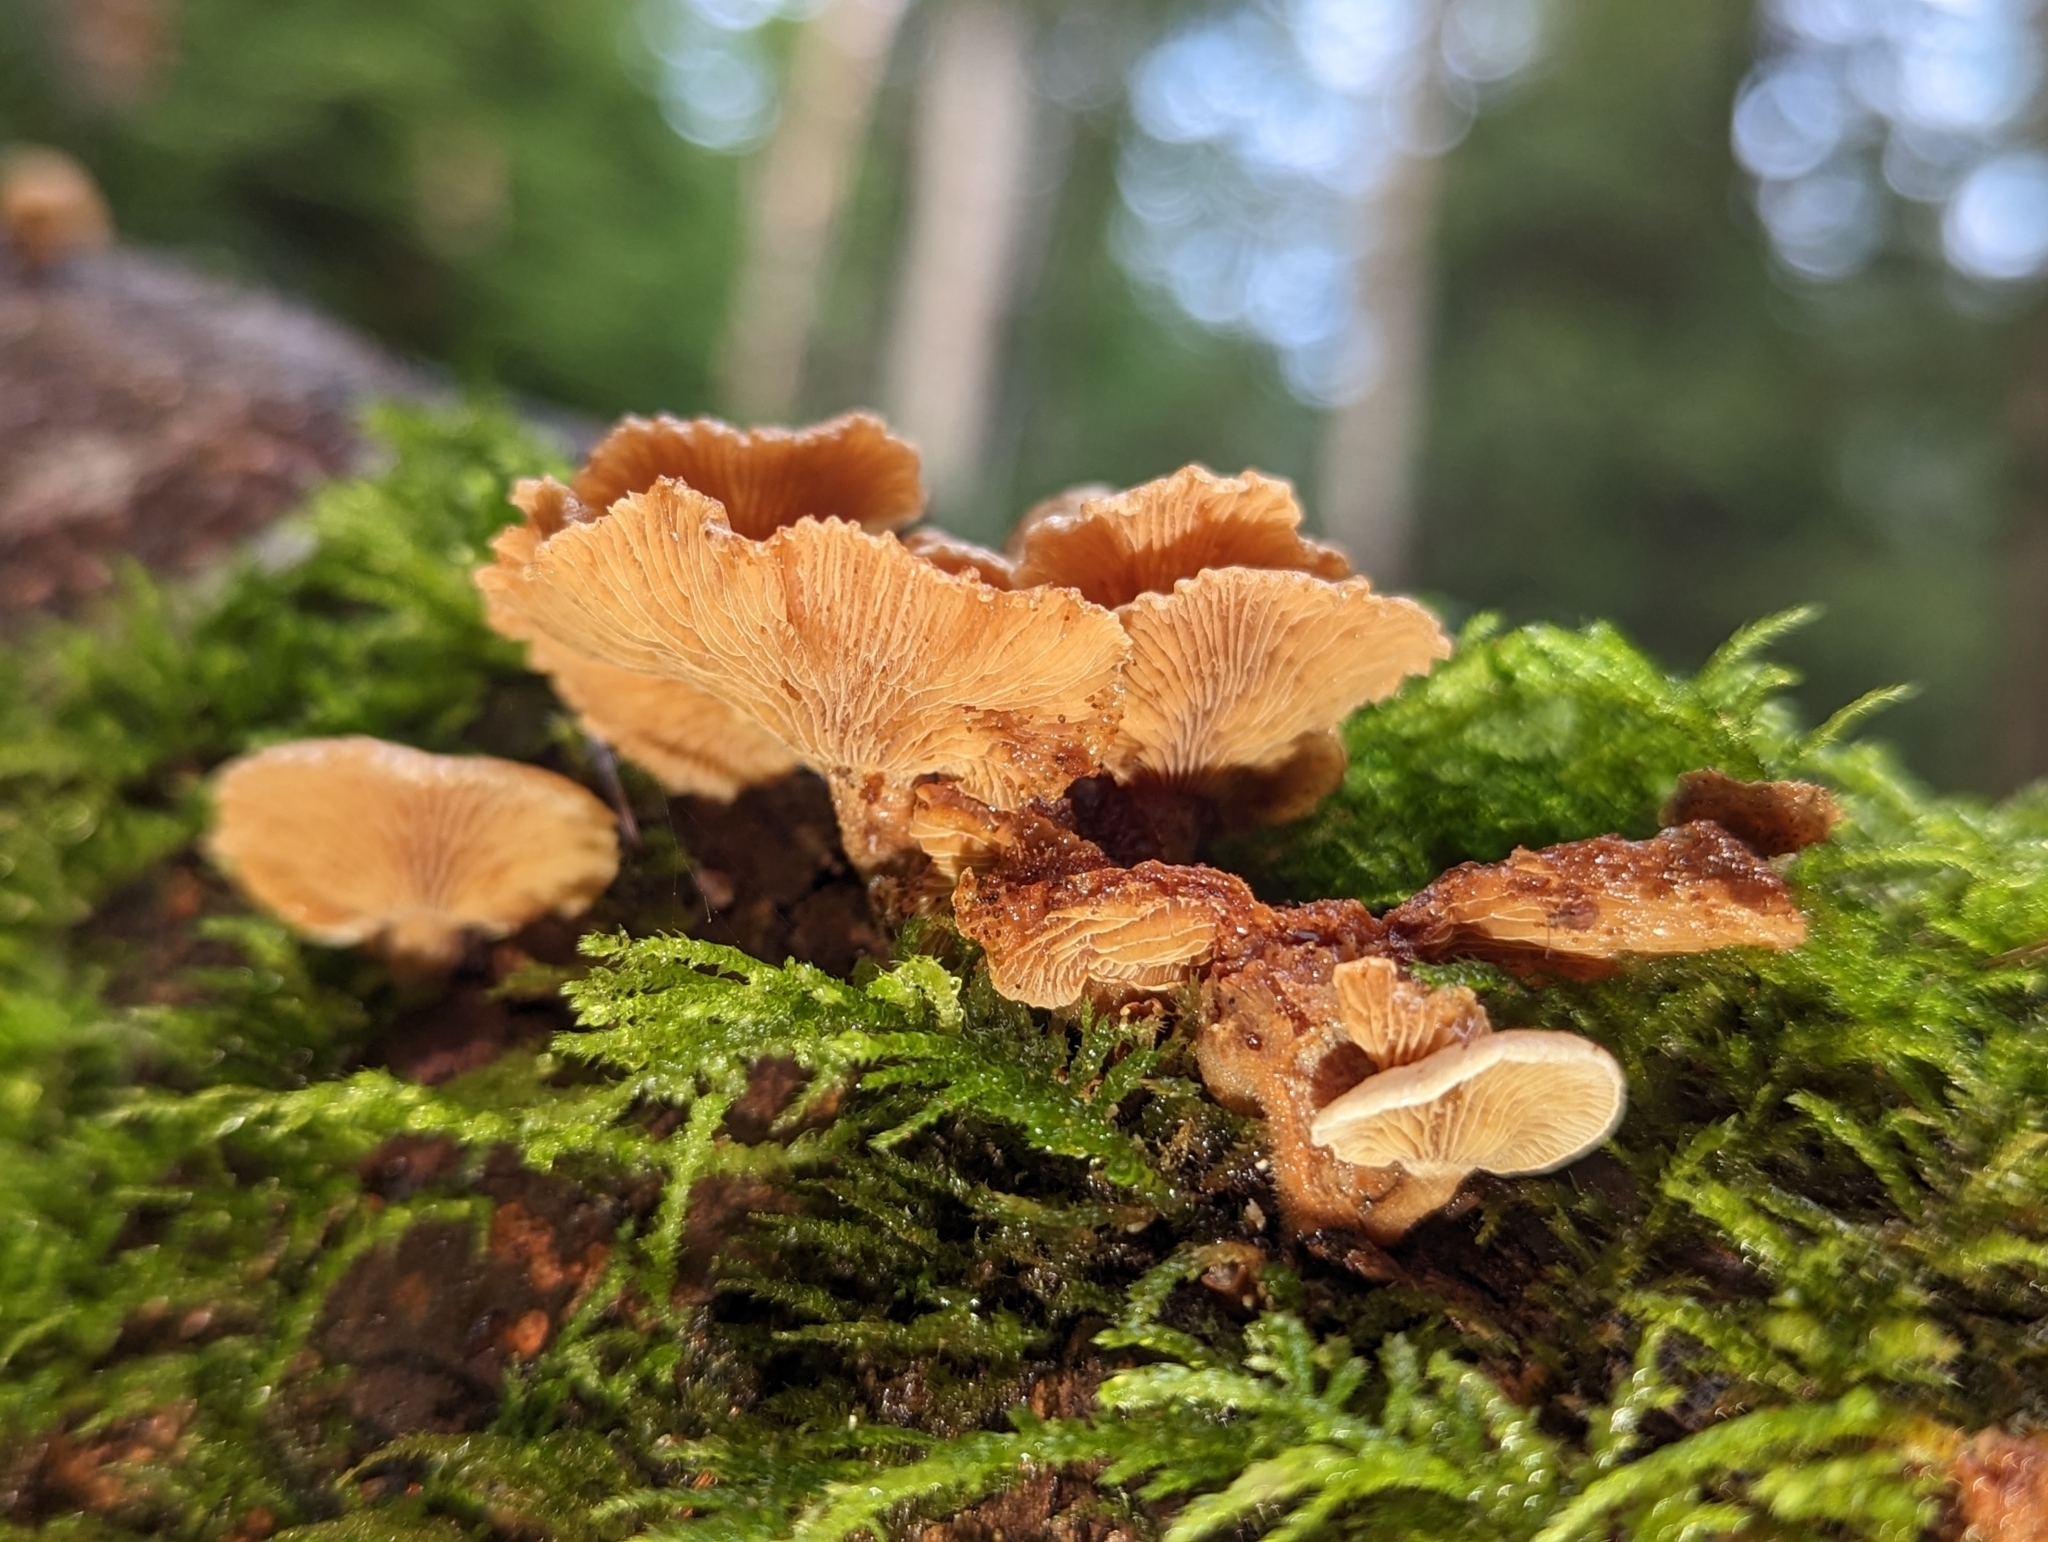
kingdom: Fungi
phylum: Basidiomycota
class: Agaricomycetes
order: Agaricales
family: Mycenaceae
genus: Panellus
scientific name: Panellus stipticus
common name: Bitter oysterling
